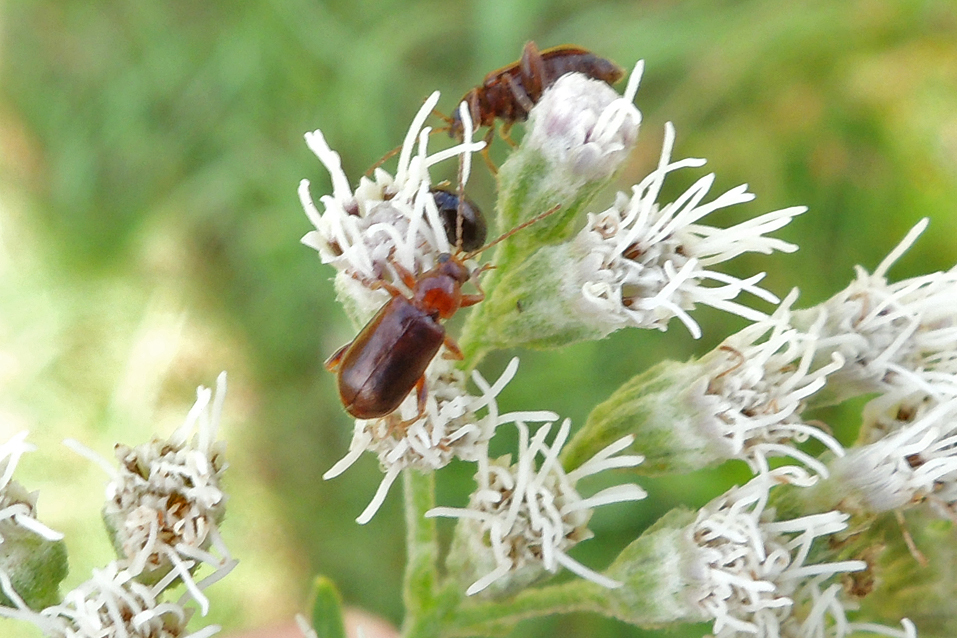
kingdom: Animalia
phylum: Arthropoda
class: Insecta
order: Coleoptera
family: Chrysomelidae
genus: Luperaltica
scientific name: Luperaltica nigripalpis
